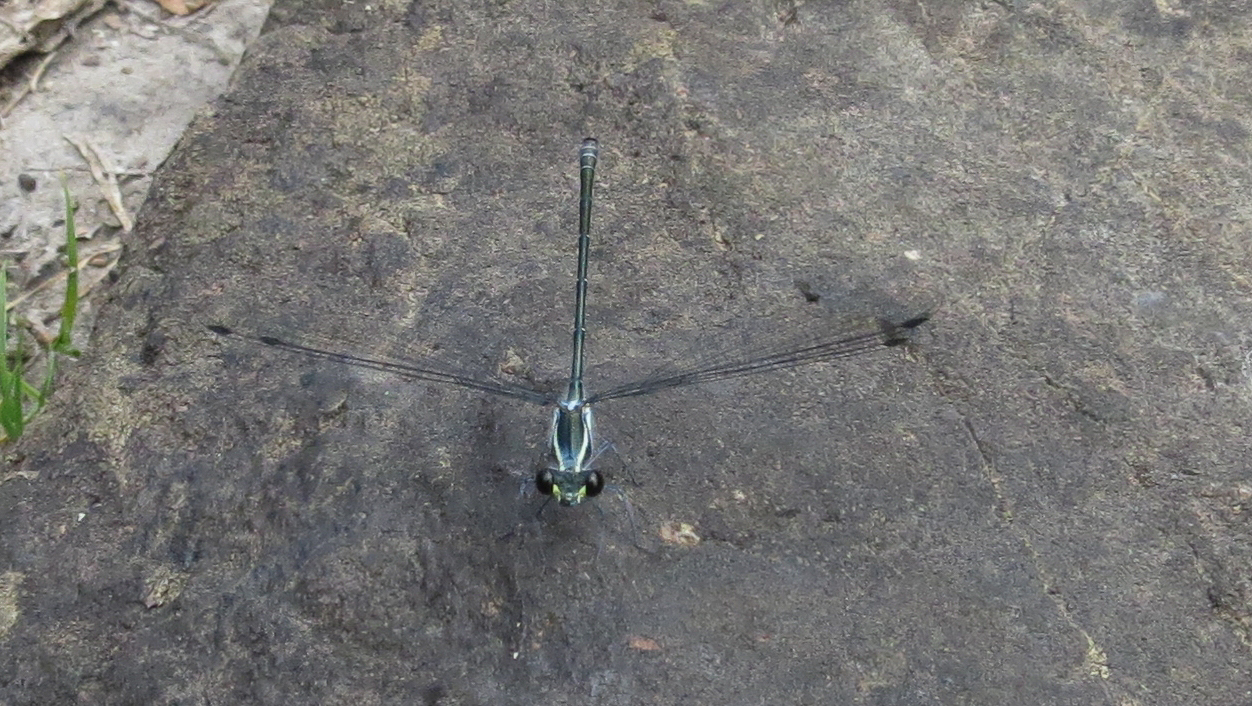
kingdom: Animalia
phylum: Arthropoda
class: Insecta
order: Odonata
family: Argiolestidae
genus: Austroargiolestes
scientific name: Austroargiolestes icteromelas
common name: Common flatwing
